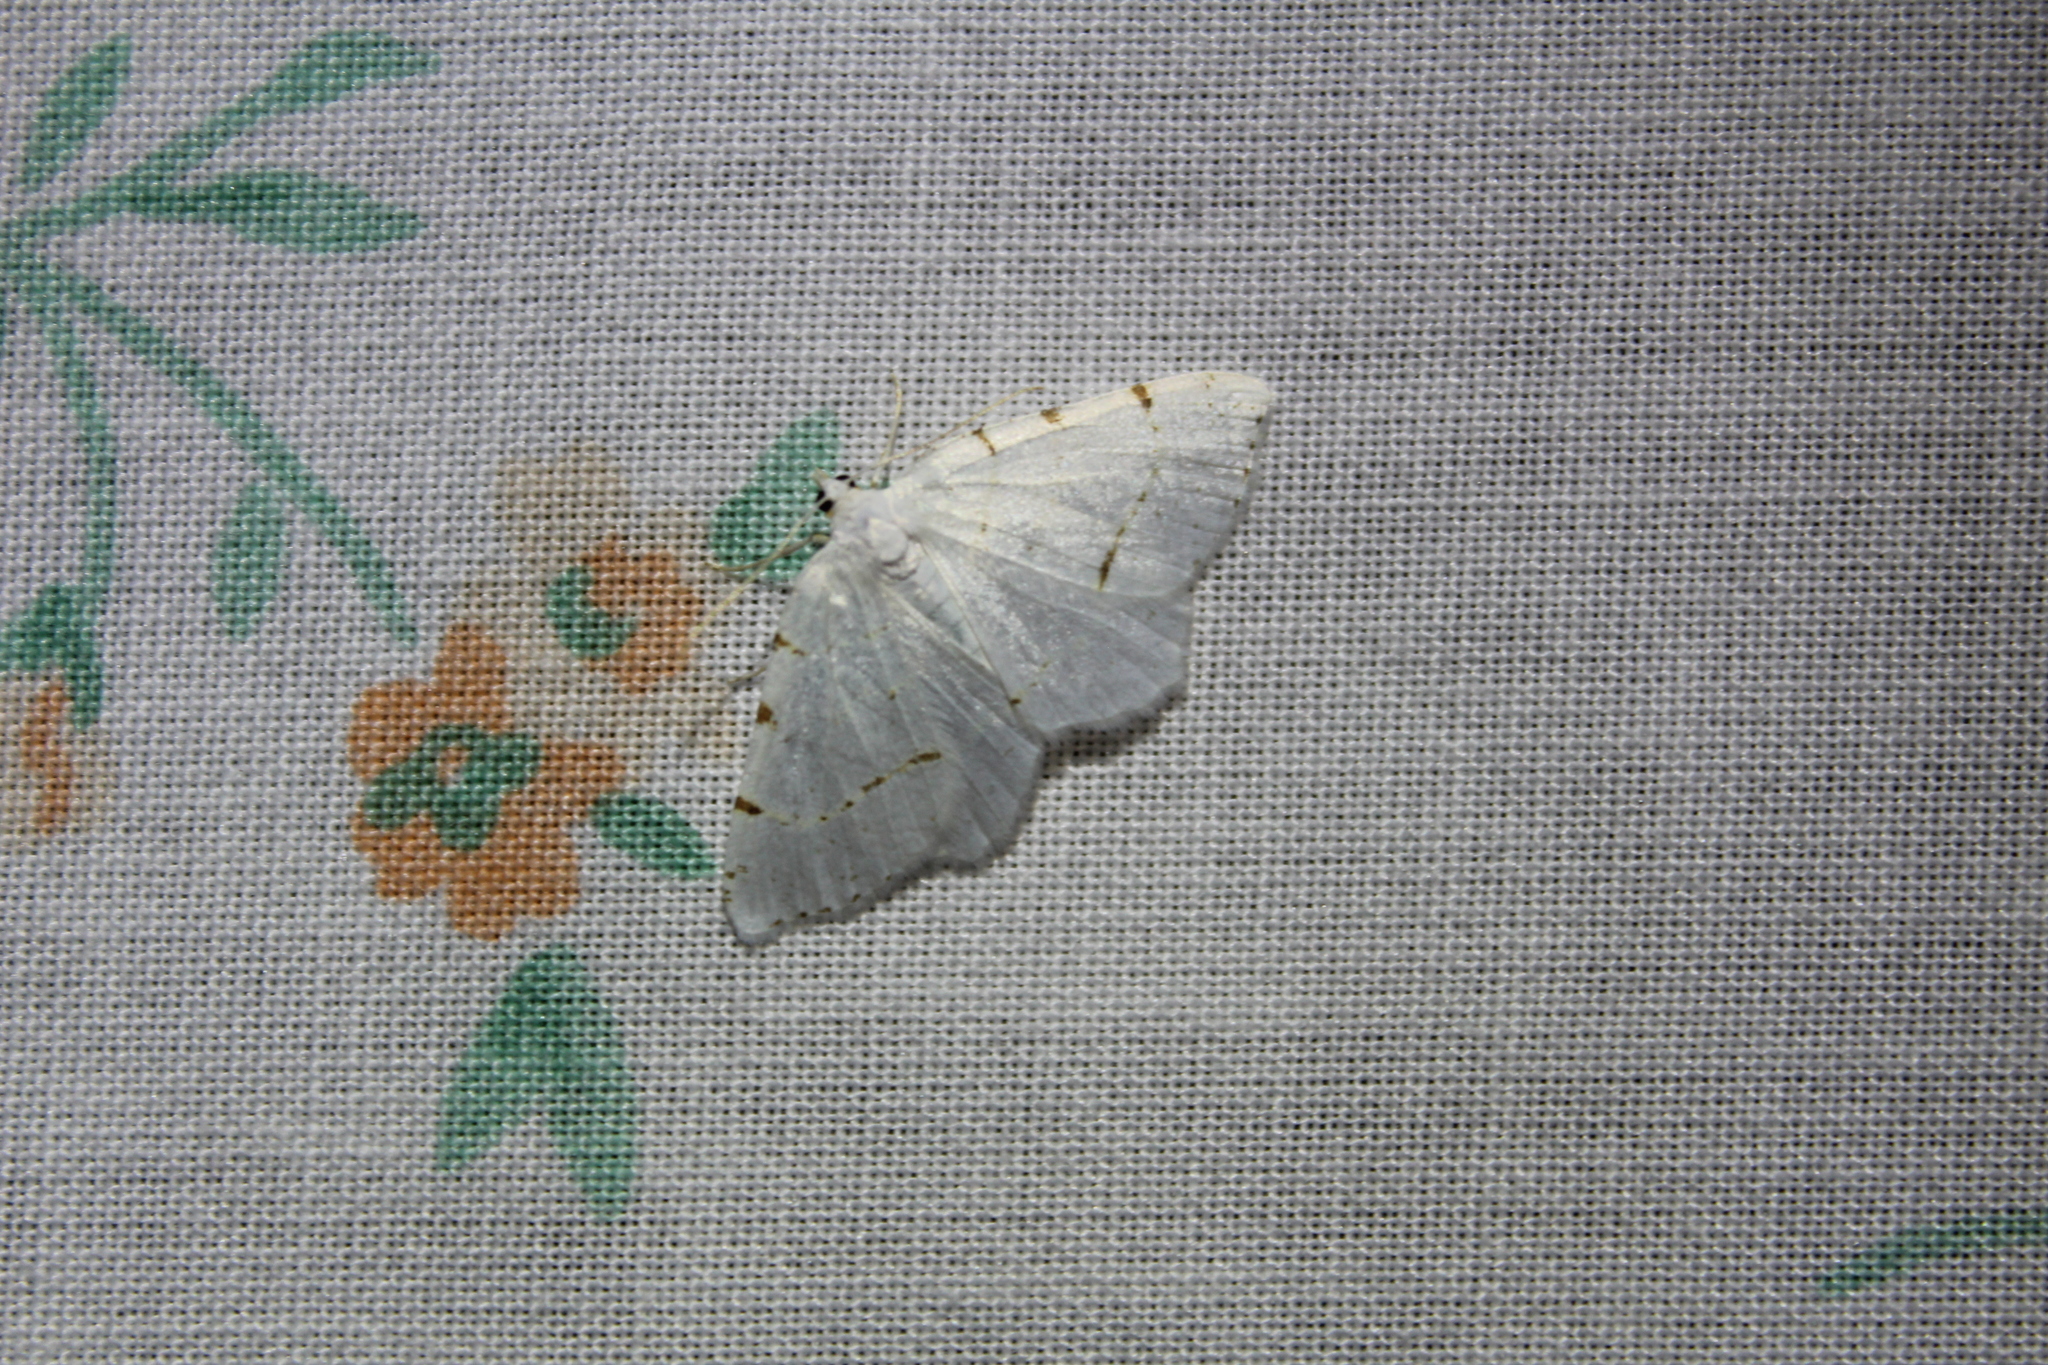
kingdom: Animalia
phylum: Arthropoda
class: Insecta
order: Lepidoptera
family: Geometridae
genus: Macaria
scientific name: Macaria pustularia
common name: Lesser maple spanworm moth
